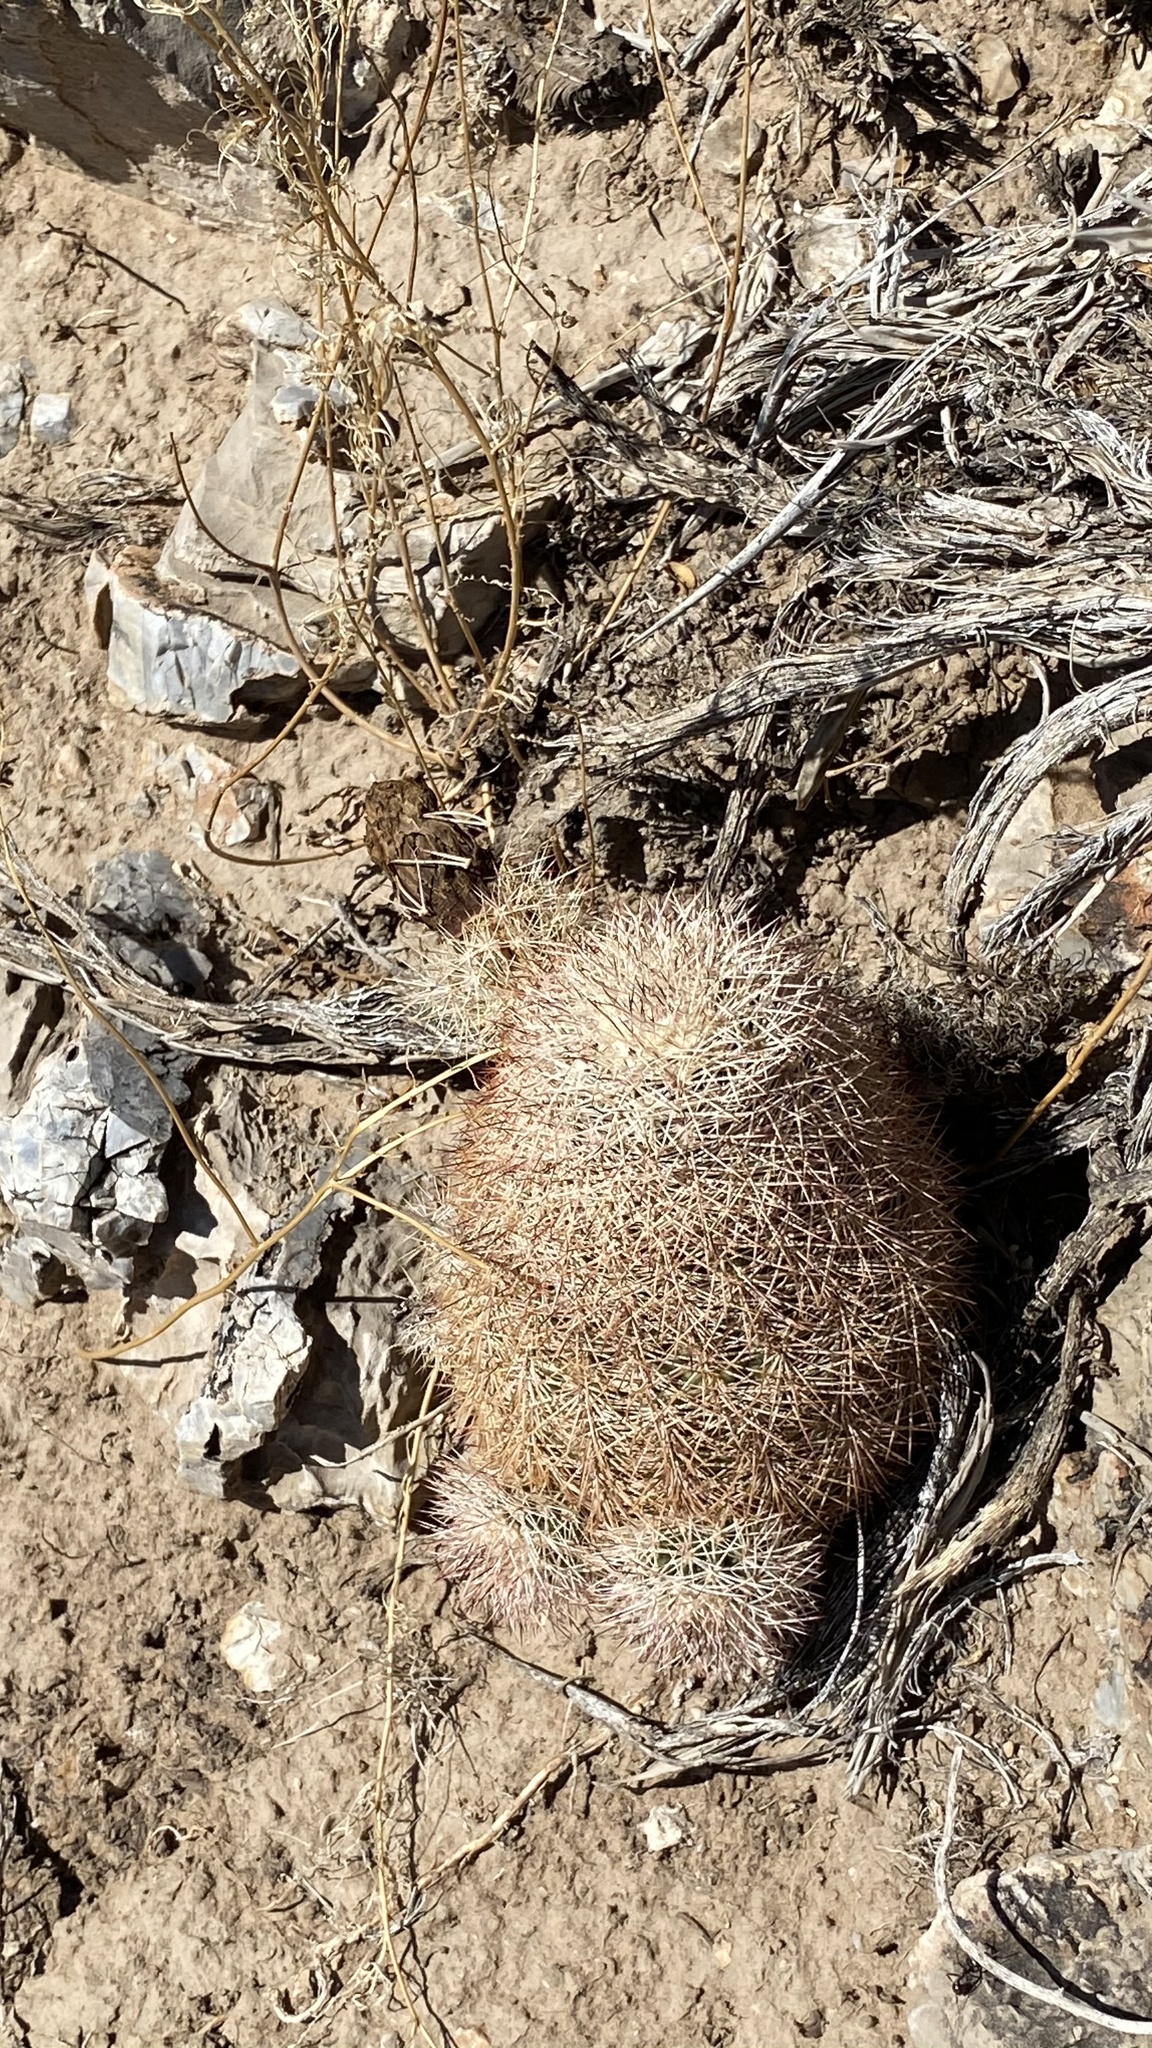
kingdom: Plantae
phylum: Tracheophyta
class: Magnoliopsida
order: Caryophyllales
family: Cactaceae
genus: Echinocereus
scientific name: Echinocereus dasyacanthus
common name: Spiny hedgehog cactus
